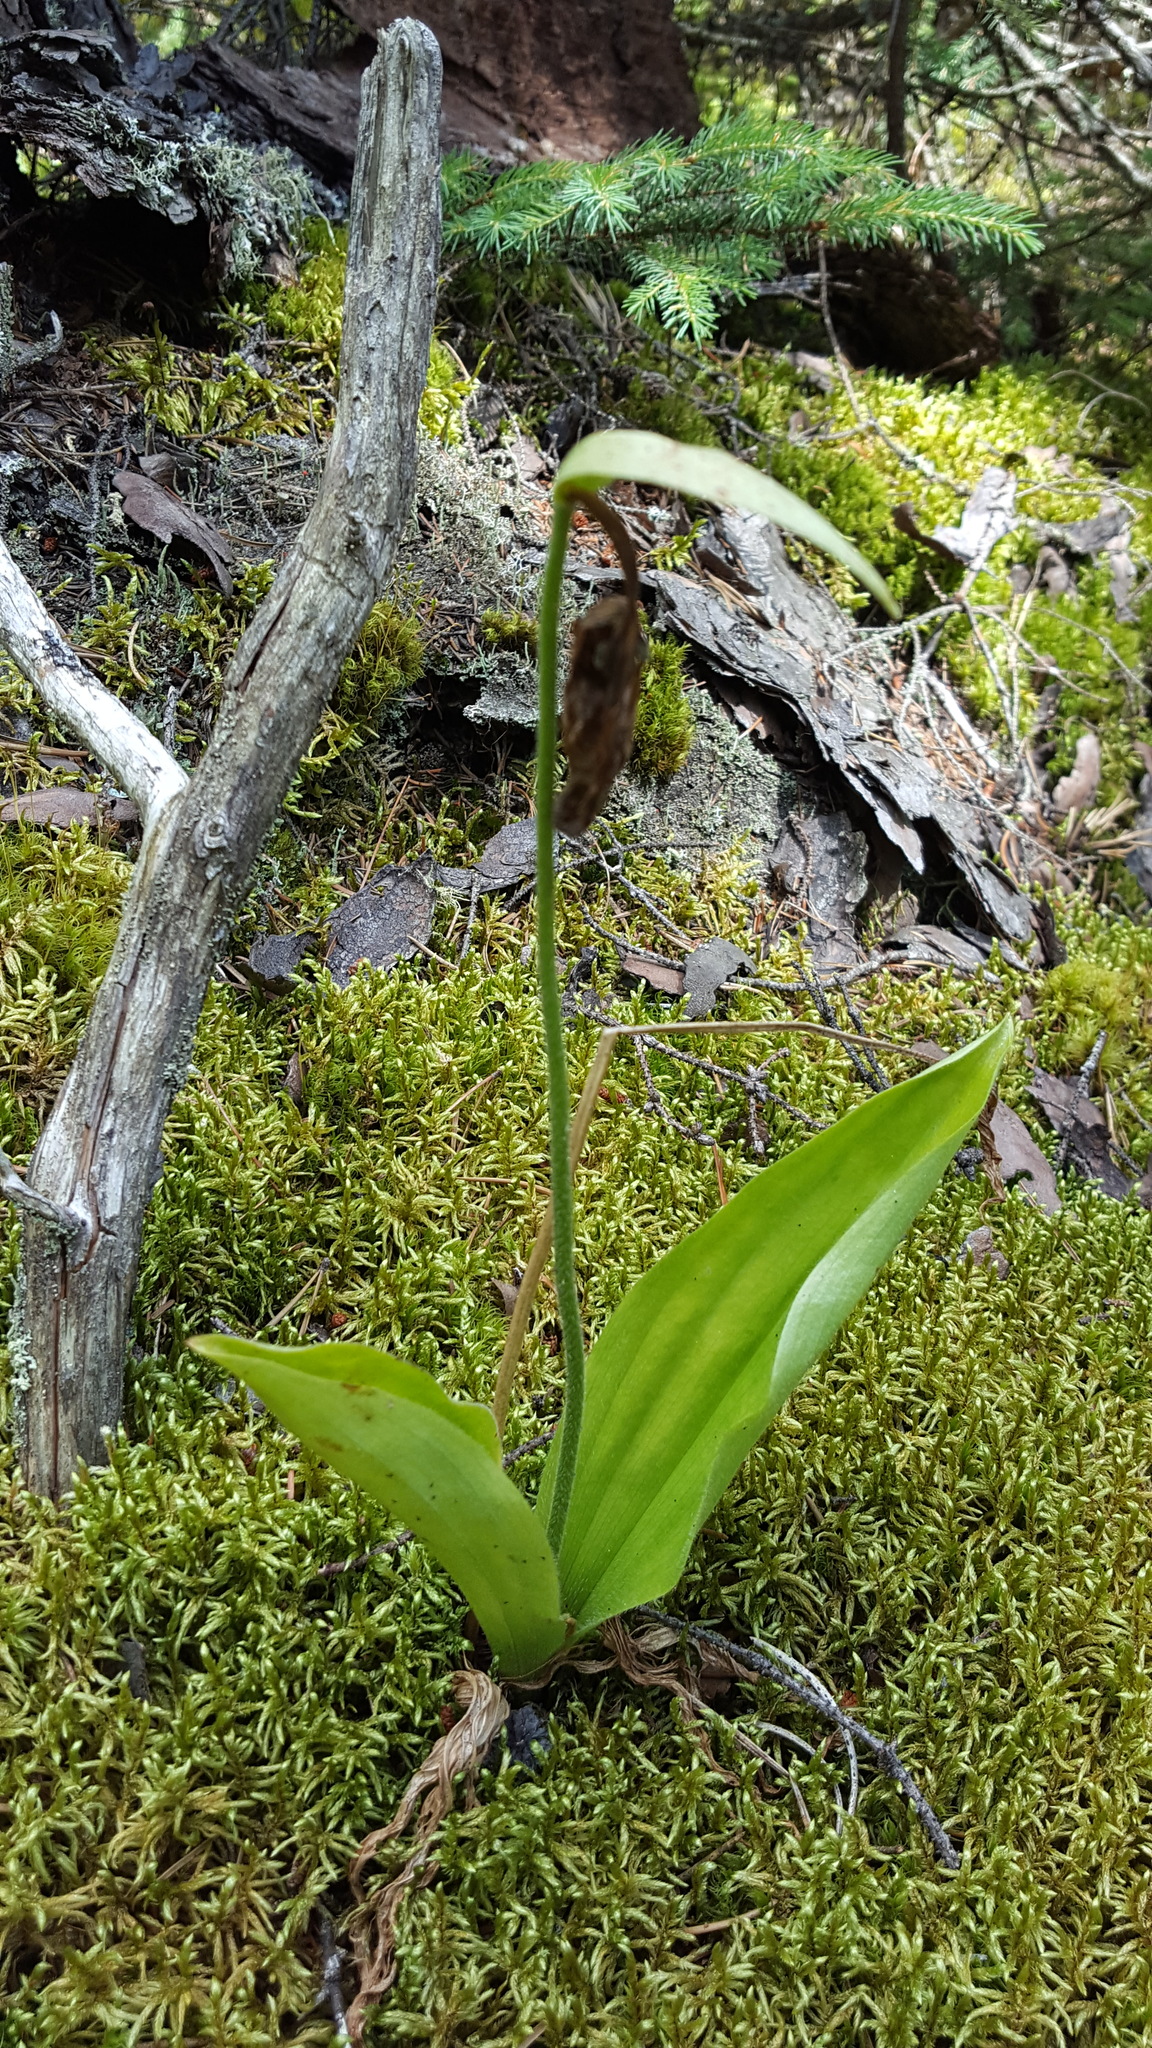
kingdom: Plantae
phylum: Tracheophyta
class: Liliopsida
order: Asparagales
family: Orchidaceae
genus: Cypripedium
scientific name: Cypripedium acaule
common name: Pink lady's-slipper
